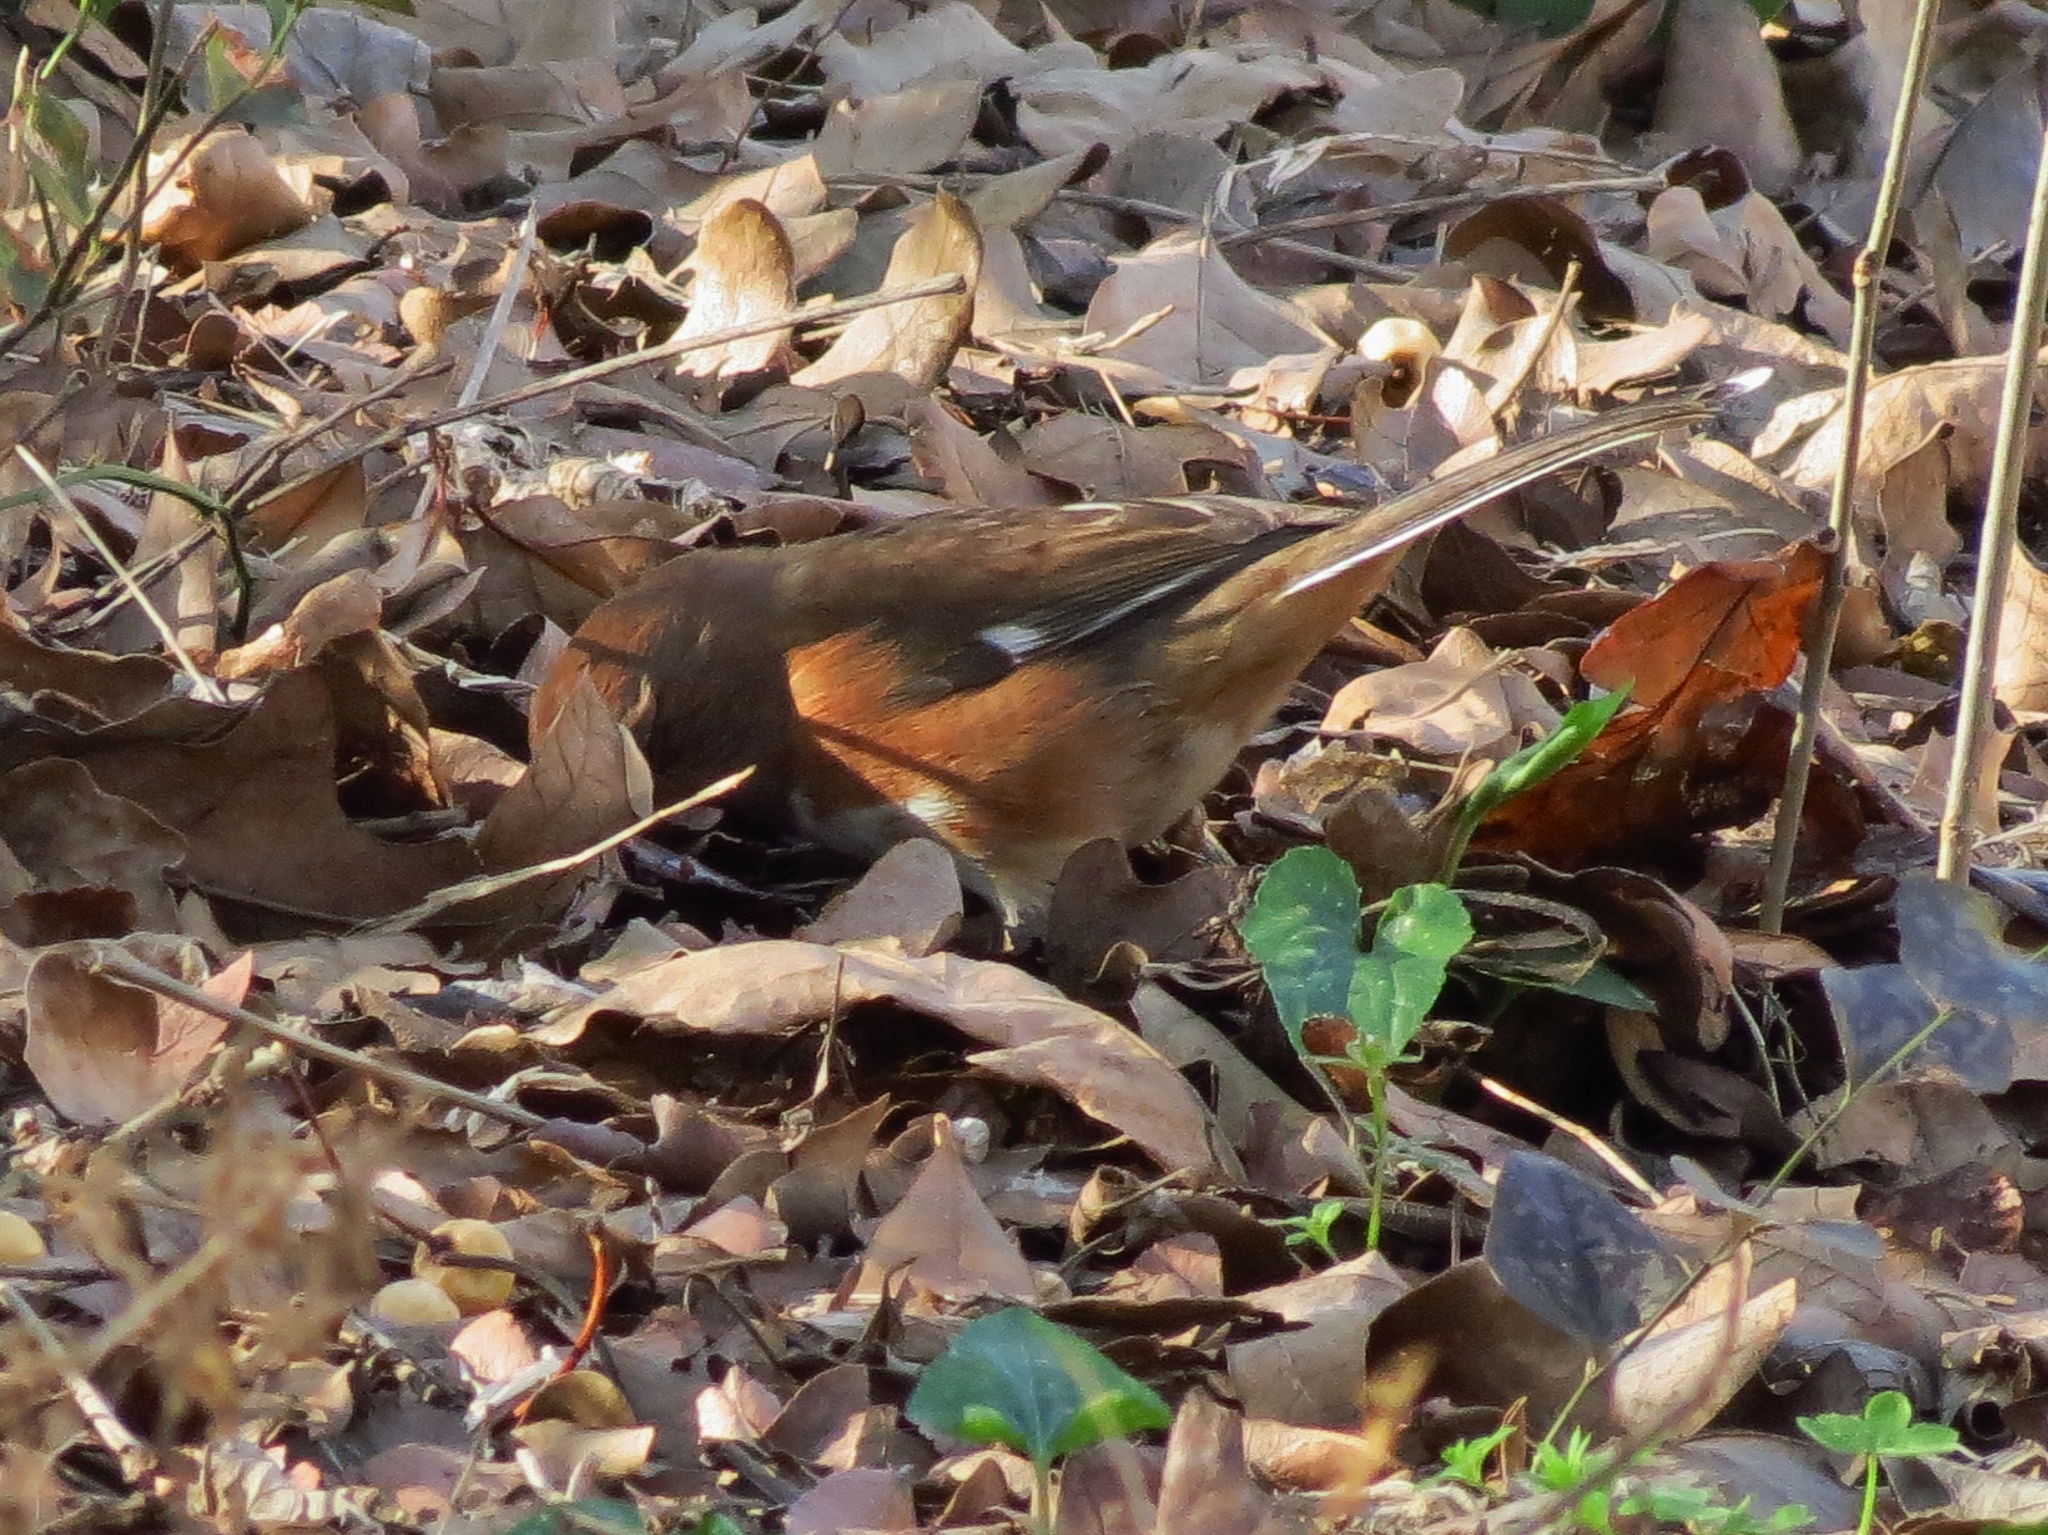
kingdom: Animalia
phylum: Chordata
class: Aves
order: Passeriformes
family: Passerellidae
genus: Pipilo
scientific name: Pipilo erythrophthalmus
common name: Eastern towhee
